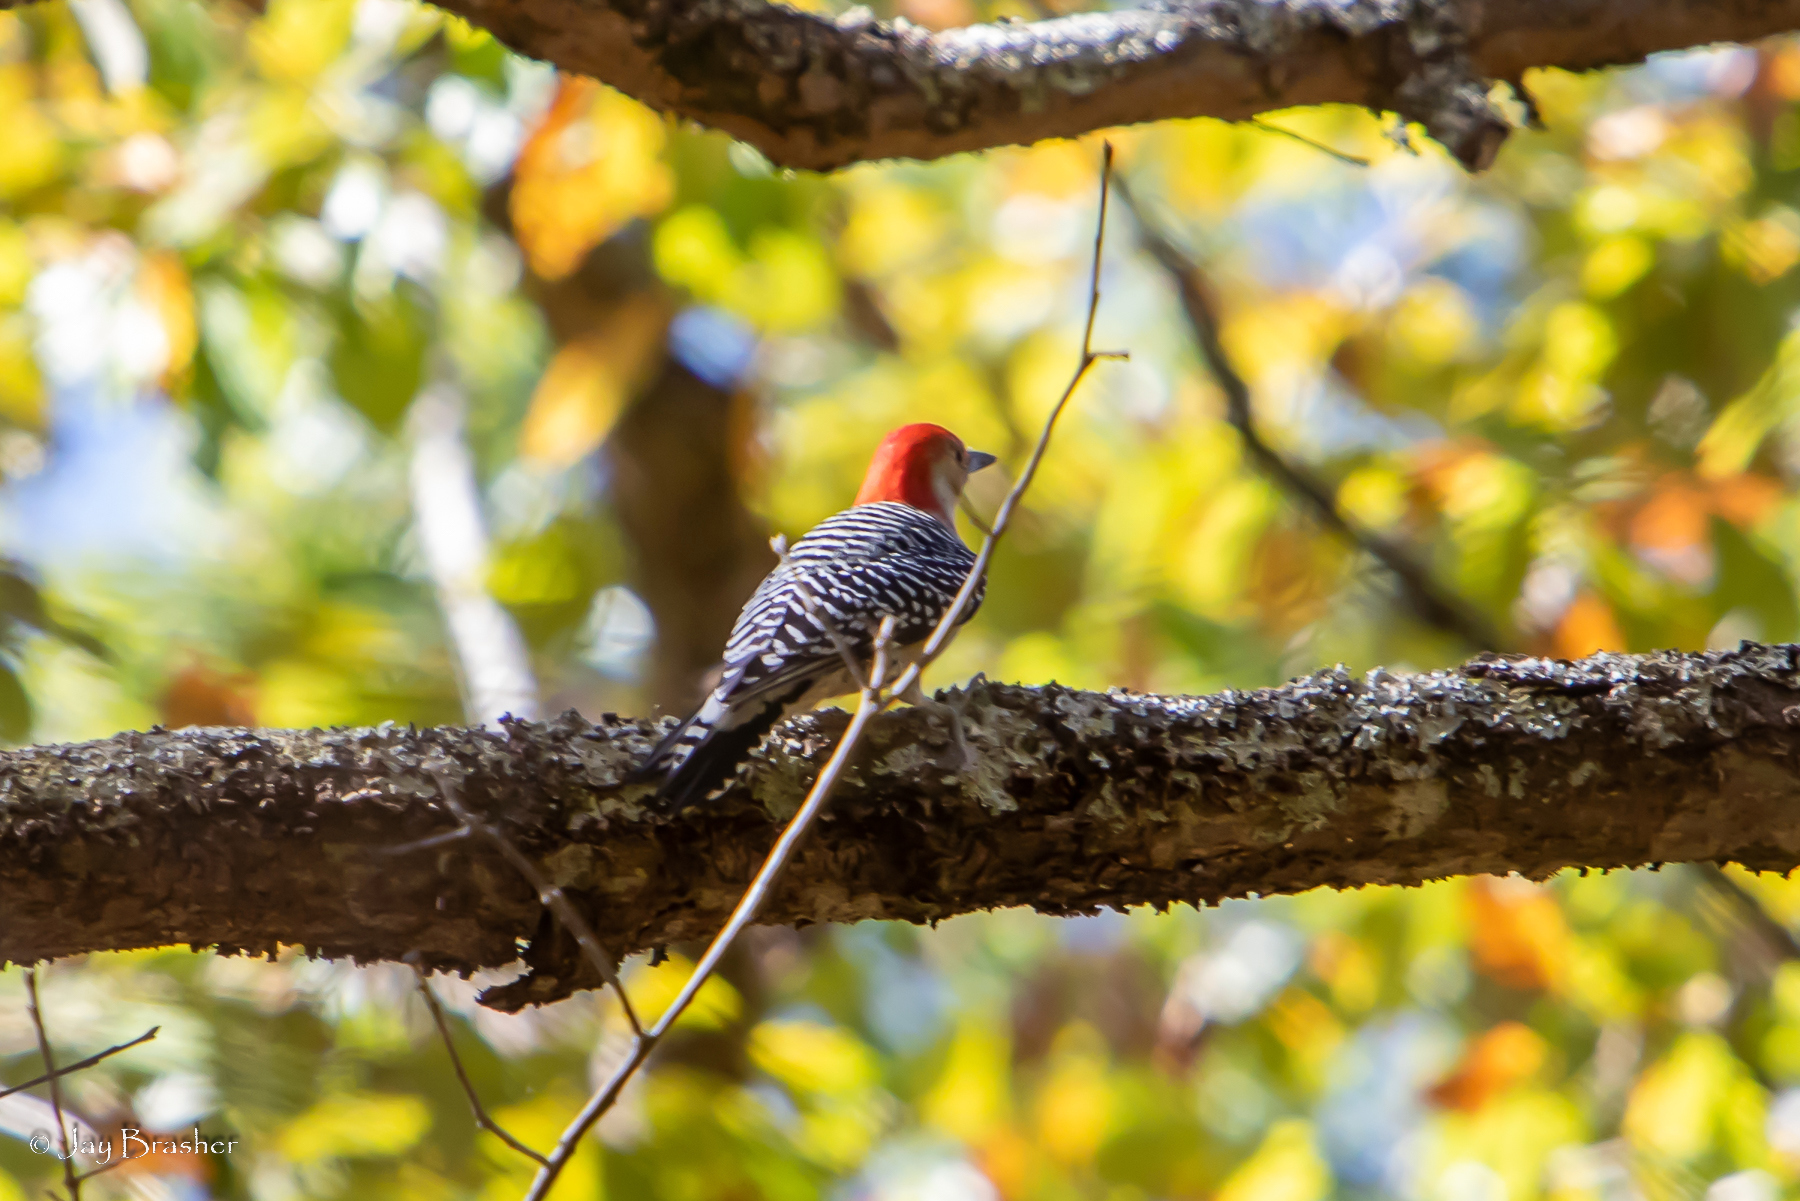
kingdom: Animalia
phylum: Chordata
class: Aves
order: Piciformes
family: Picidae
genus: Melanerpes
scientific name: Melanerpes carolinus
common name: Red-bellied woodpecker
